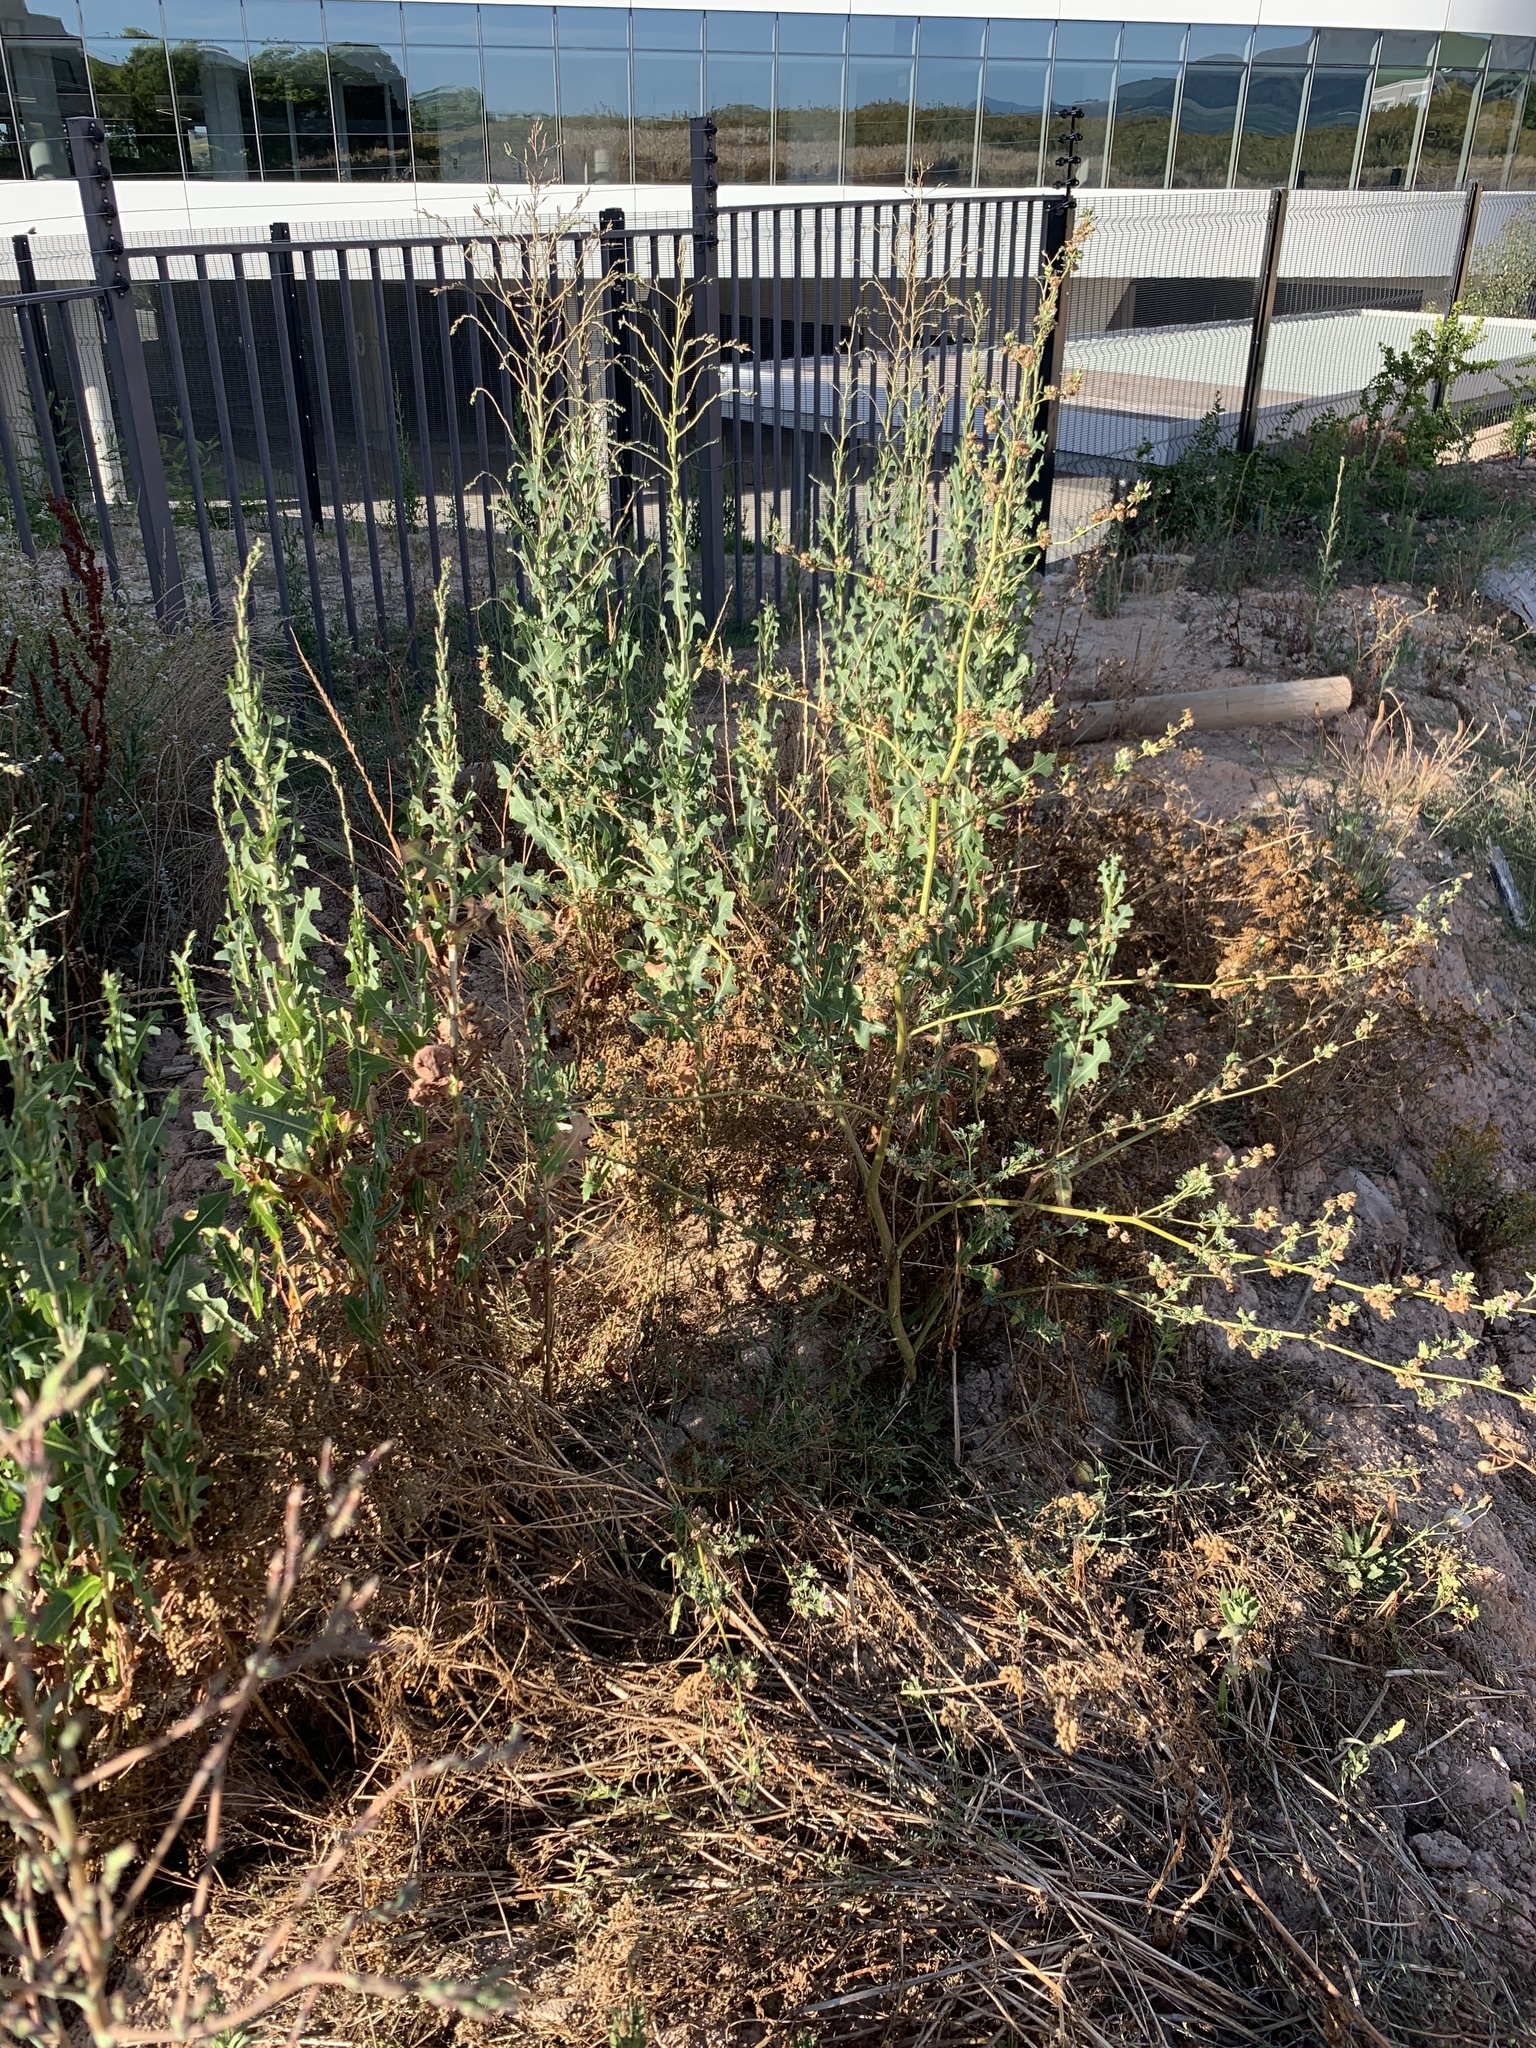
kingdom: Plantae
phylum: Tracheophyta
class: Magnoliopsida
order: Asterales
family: Asteraceae
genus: Lactuca
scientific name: Lactuca serriola
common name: Prickly lettuce
